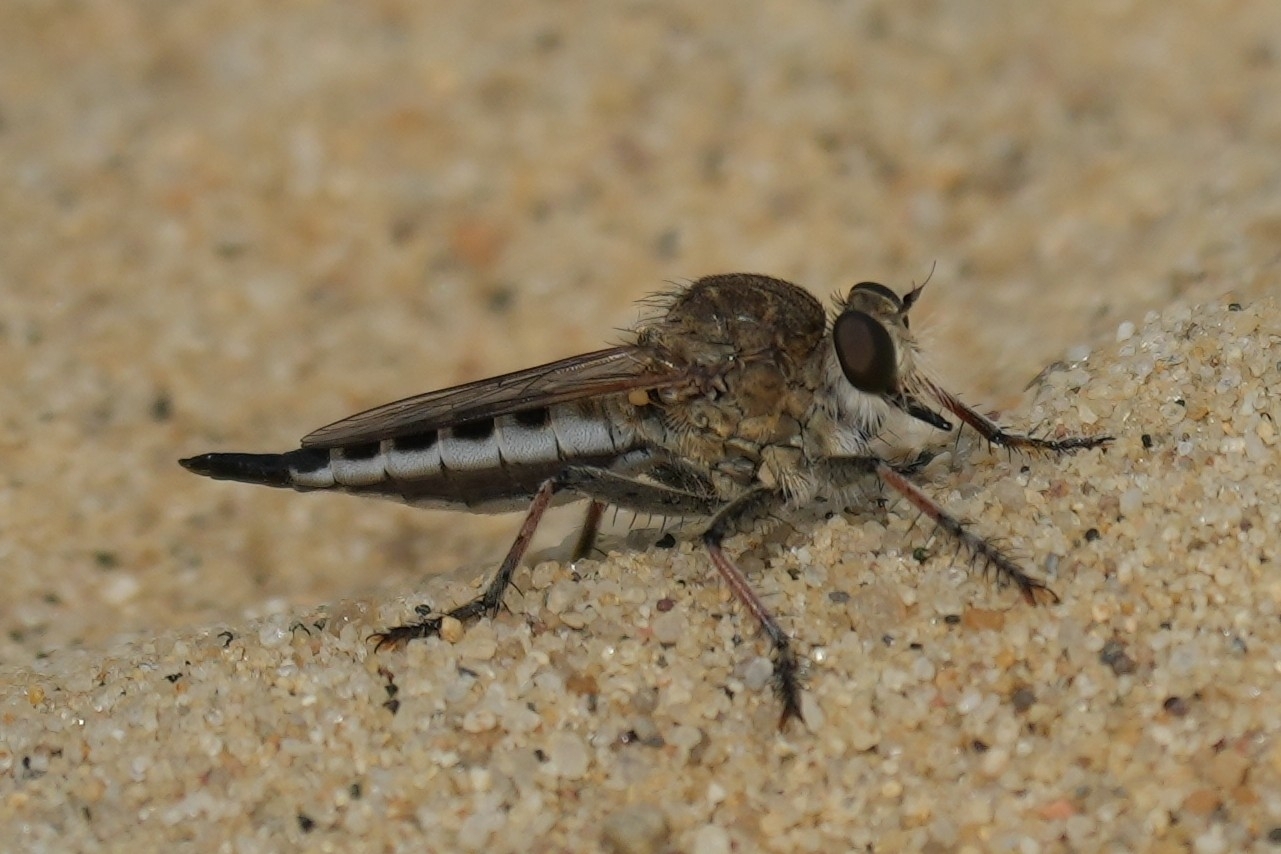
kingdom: Animalia
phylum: Arthropoda
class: Insecta
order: Diptera
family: Asilidae
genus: Efferia
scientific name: Efferia albibarbis
